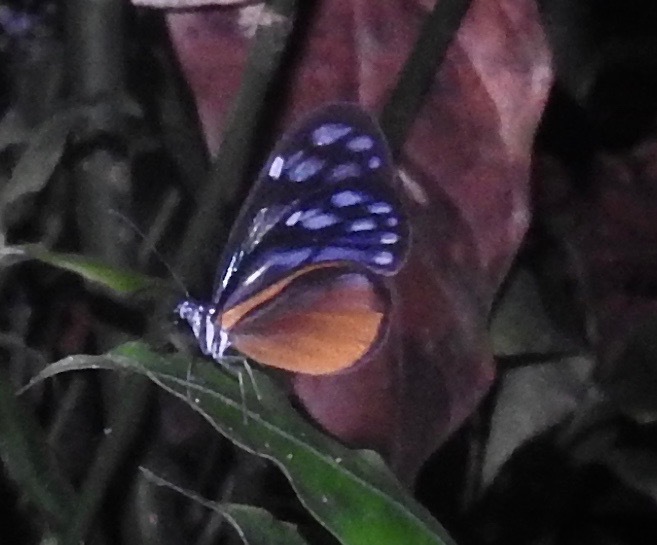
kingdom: Animalia
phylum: Arthropoda
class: Insecta
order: Lepidoptera
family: Nymphalidae
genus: Hypoleria
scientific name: Hypoleria lavinia
